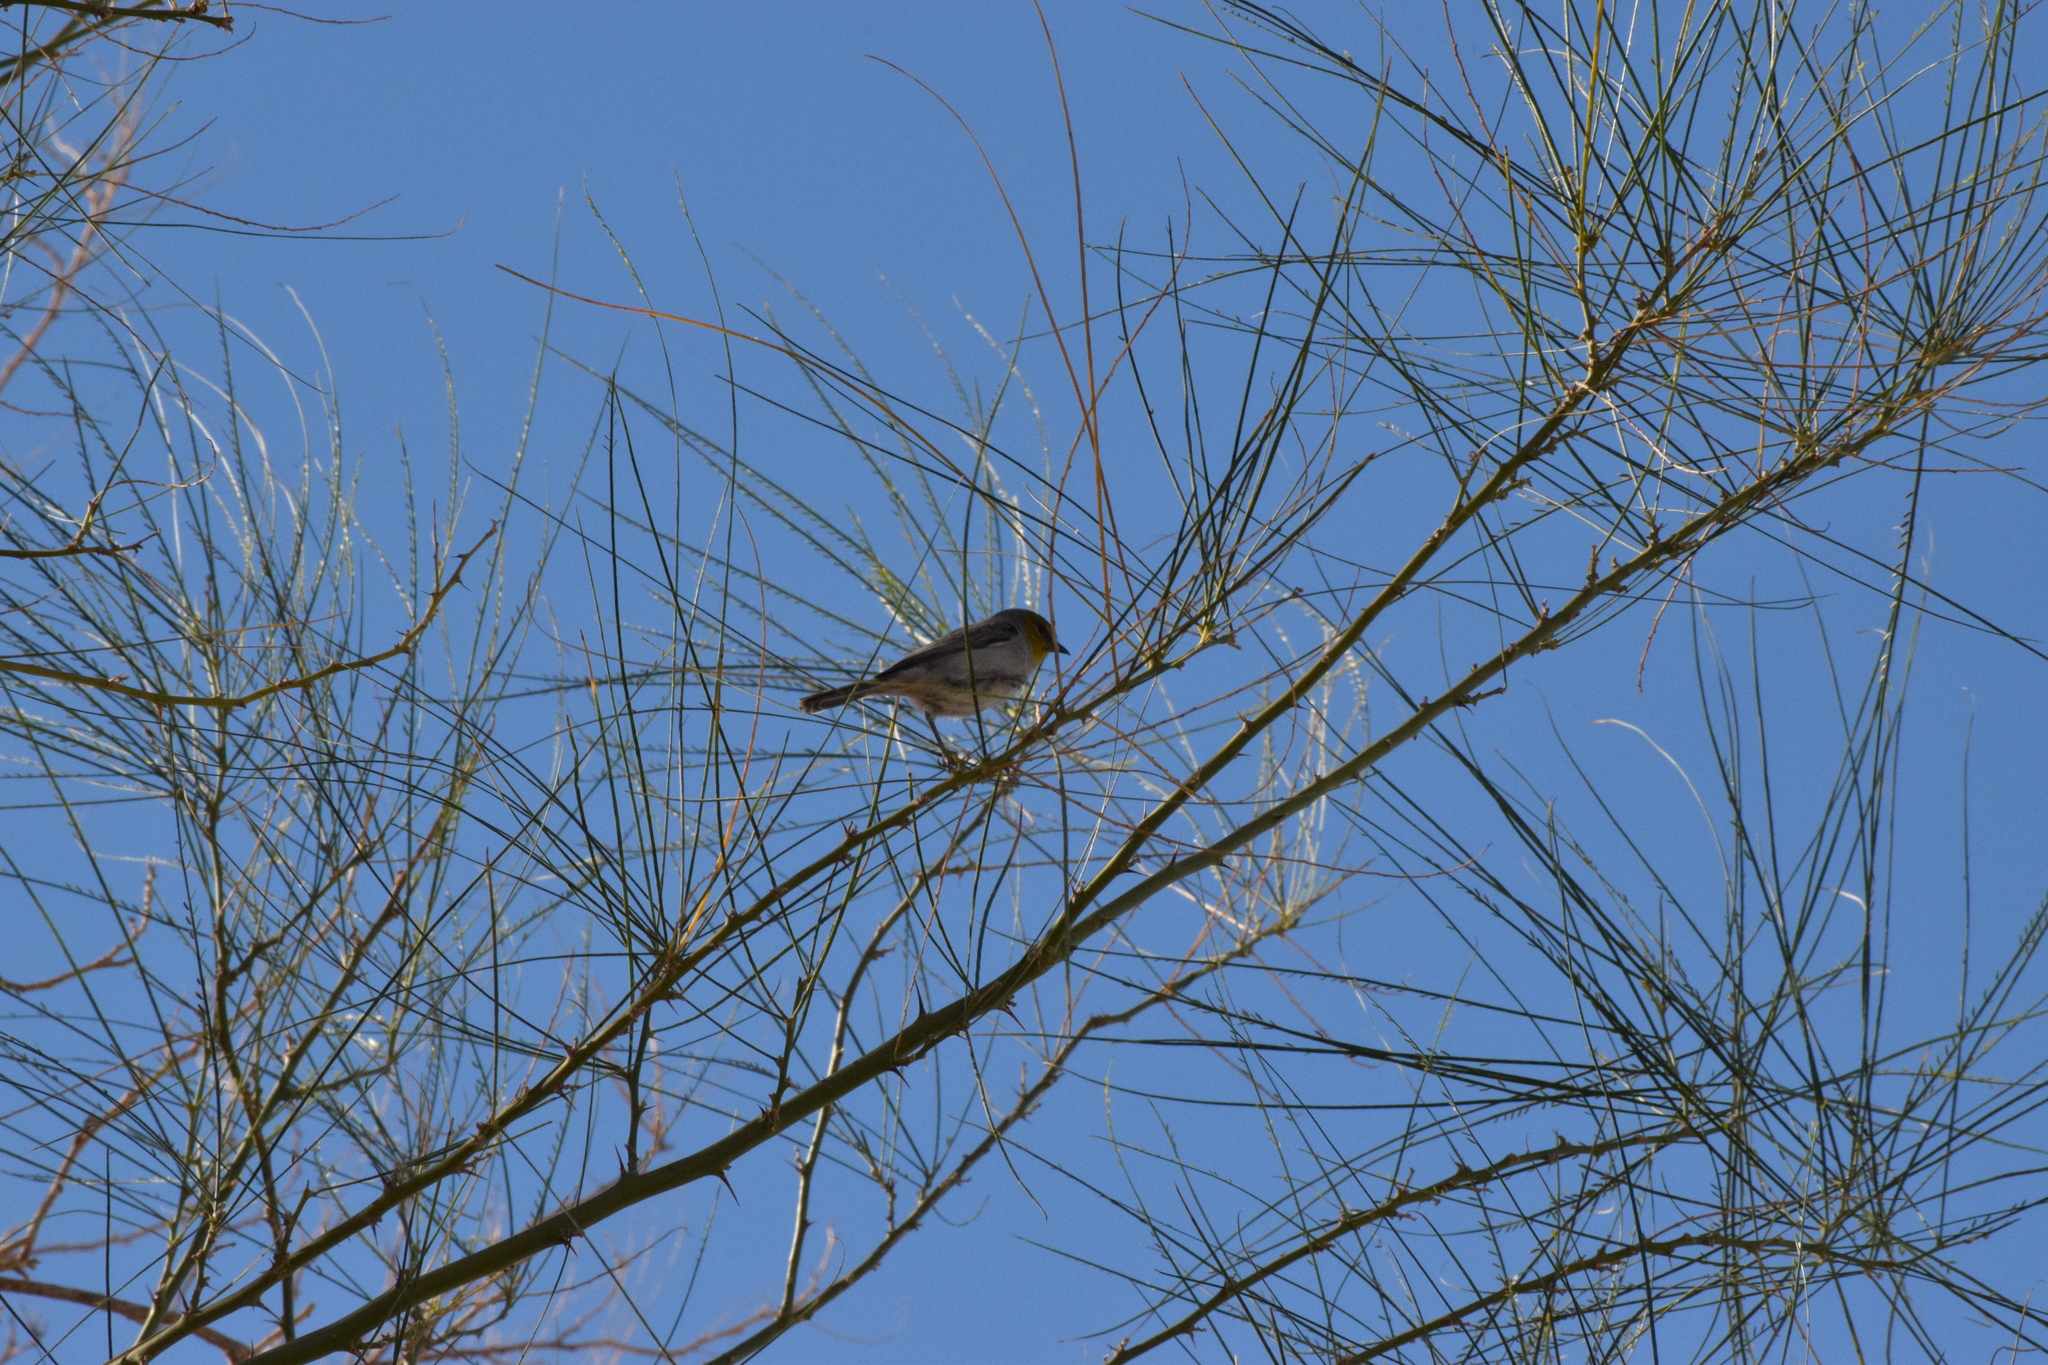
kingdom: Animalia
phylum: Chordata
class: Aves
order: Passeriformes
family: Remizidae
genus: Auriparus
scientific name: Auriparus flaviceps
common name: Verdin
